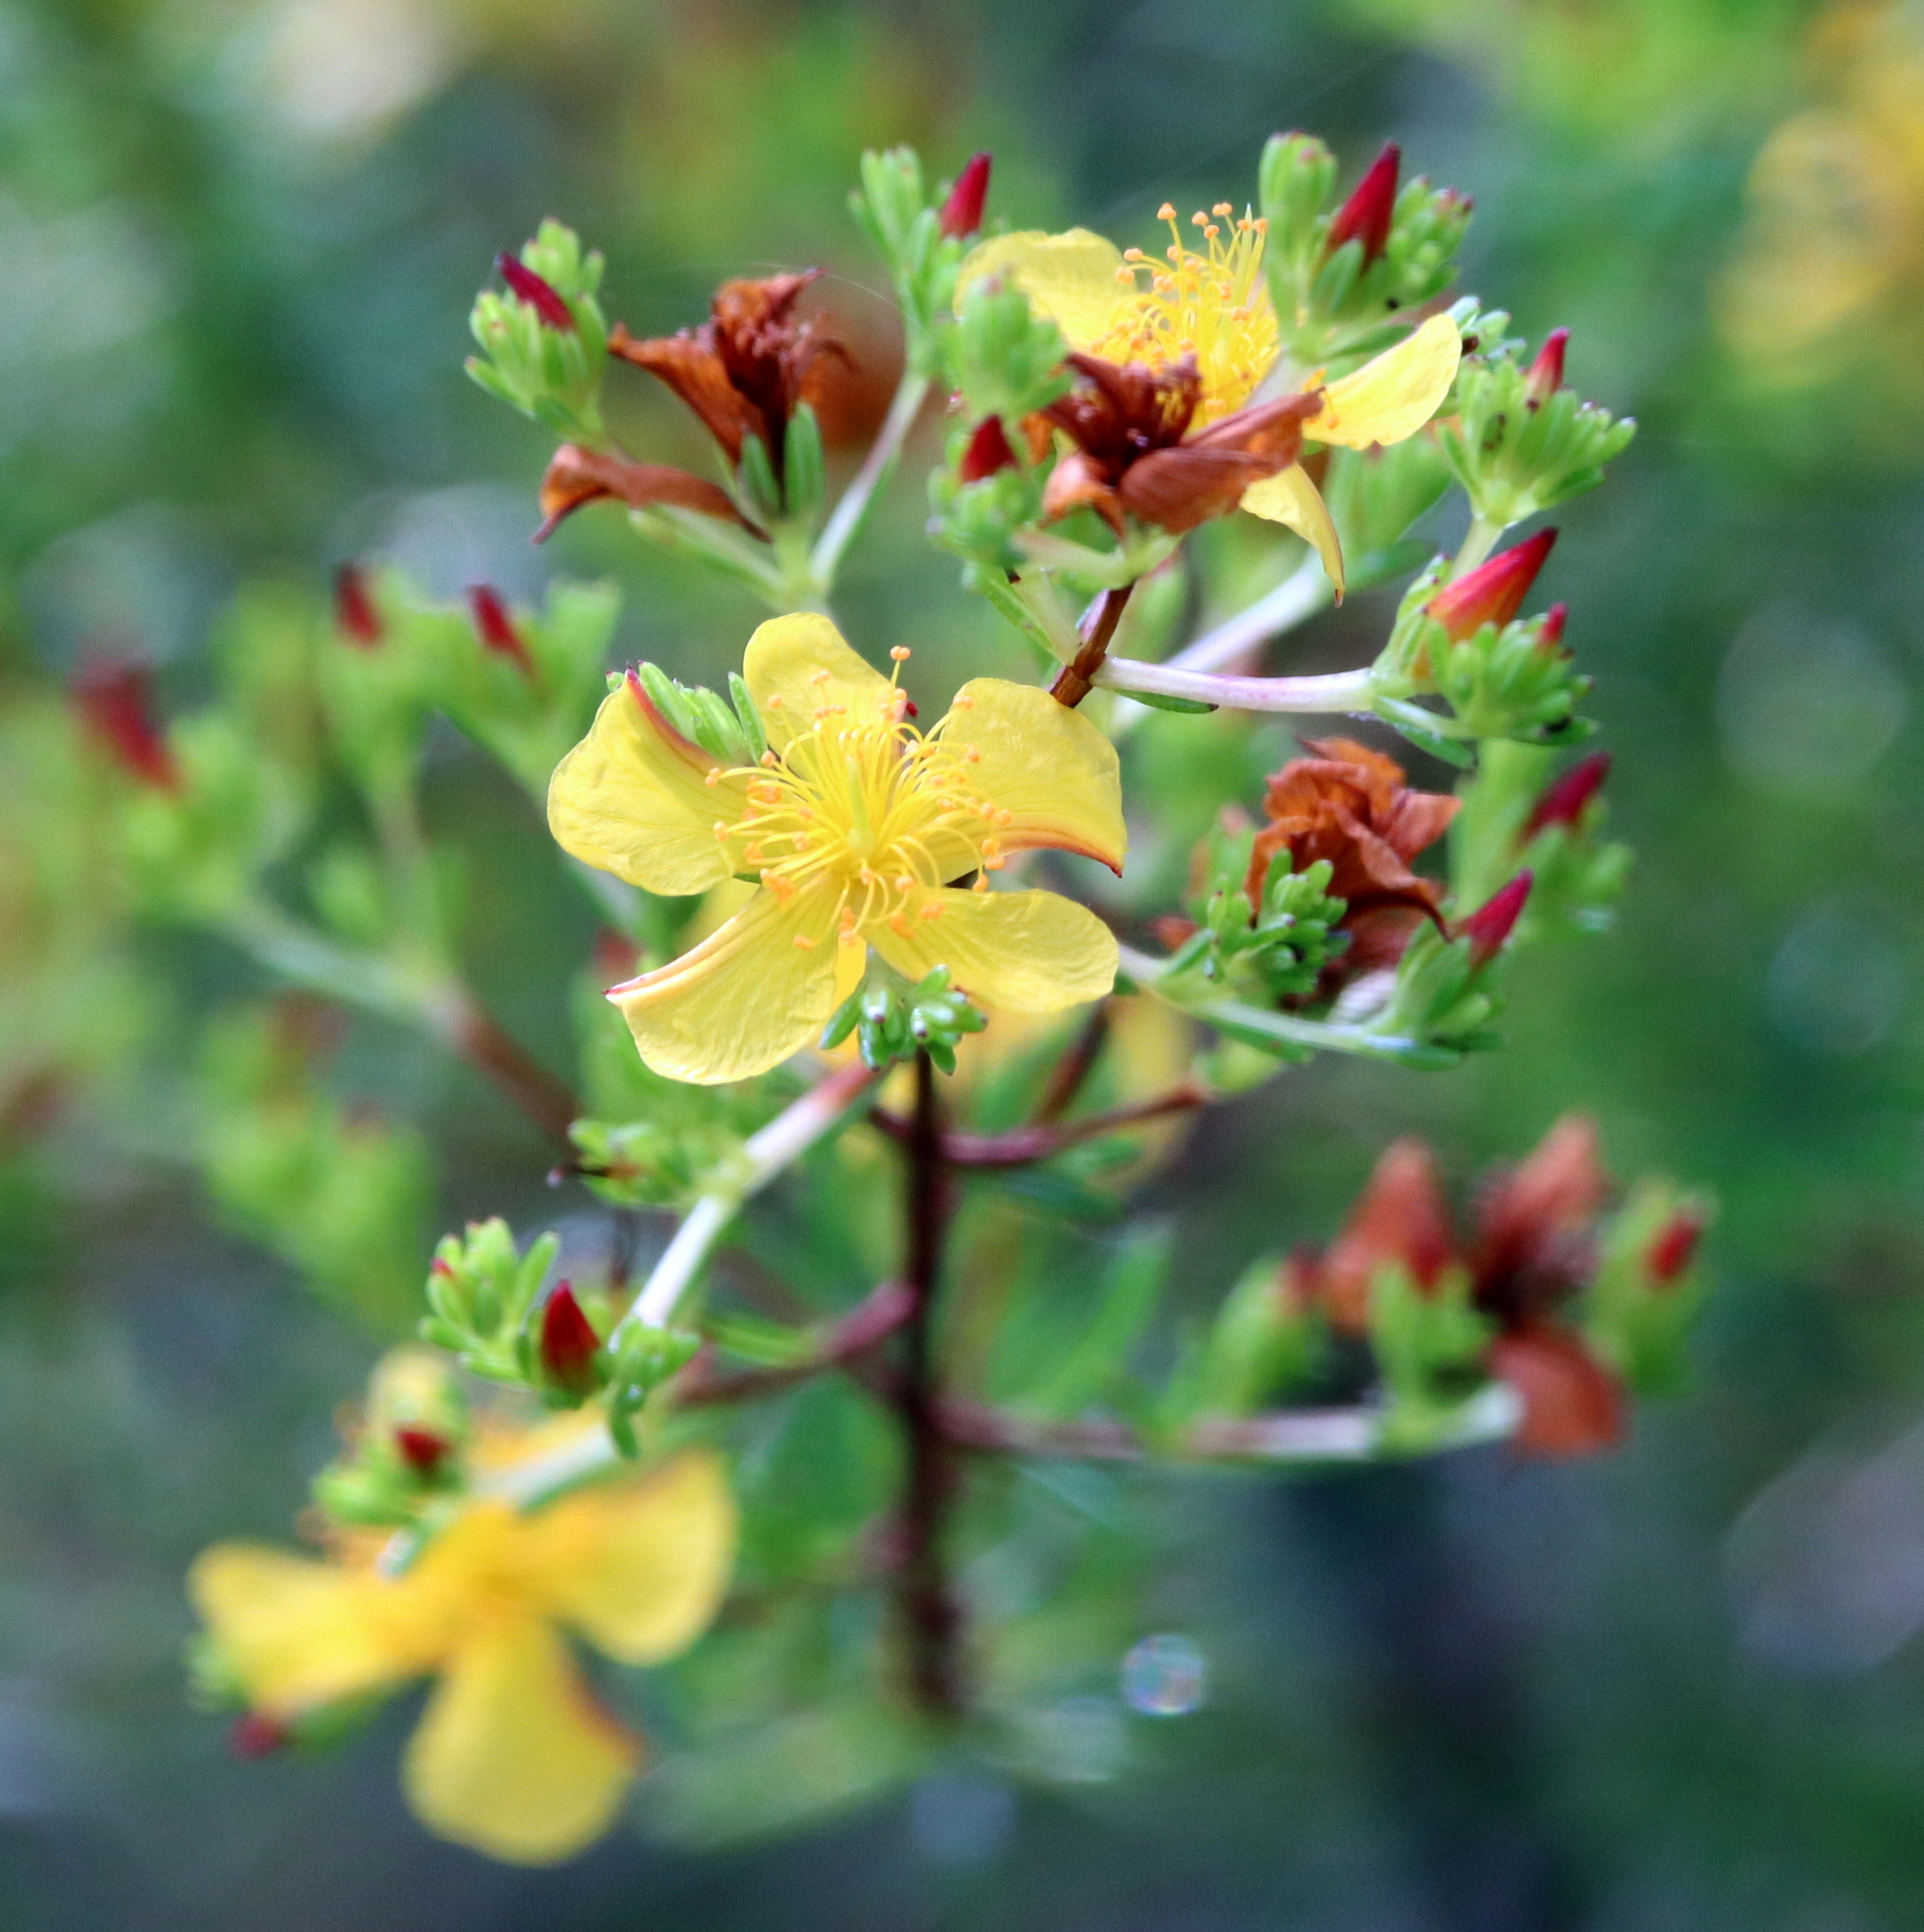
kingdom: Plantae
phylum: Tracheophyta
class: Magnoliopsida
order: Malpighiales
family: Hypericaceae
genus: Hypericum
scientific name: Hypericum brachyphyllum
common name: Coastal plain st. john's-wort
